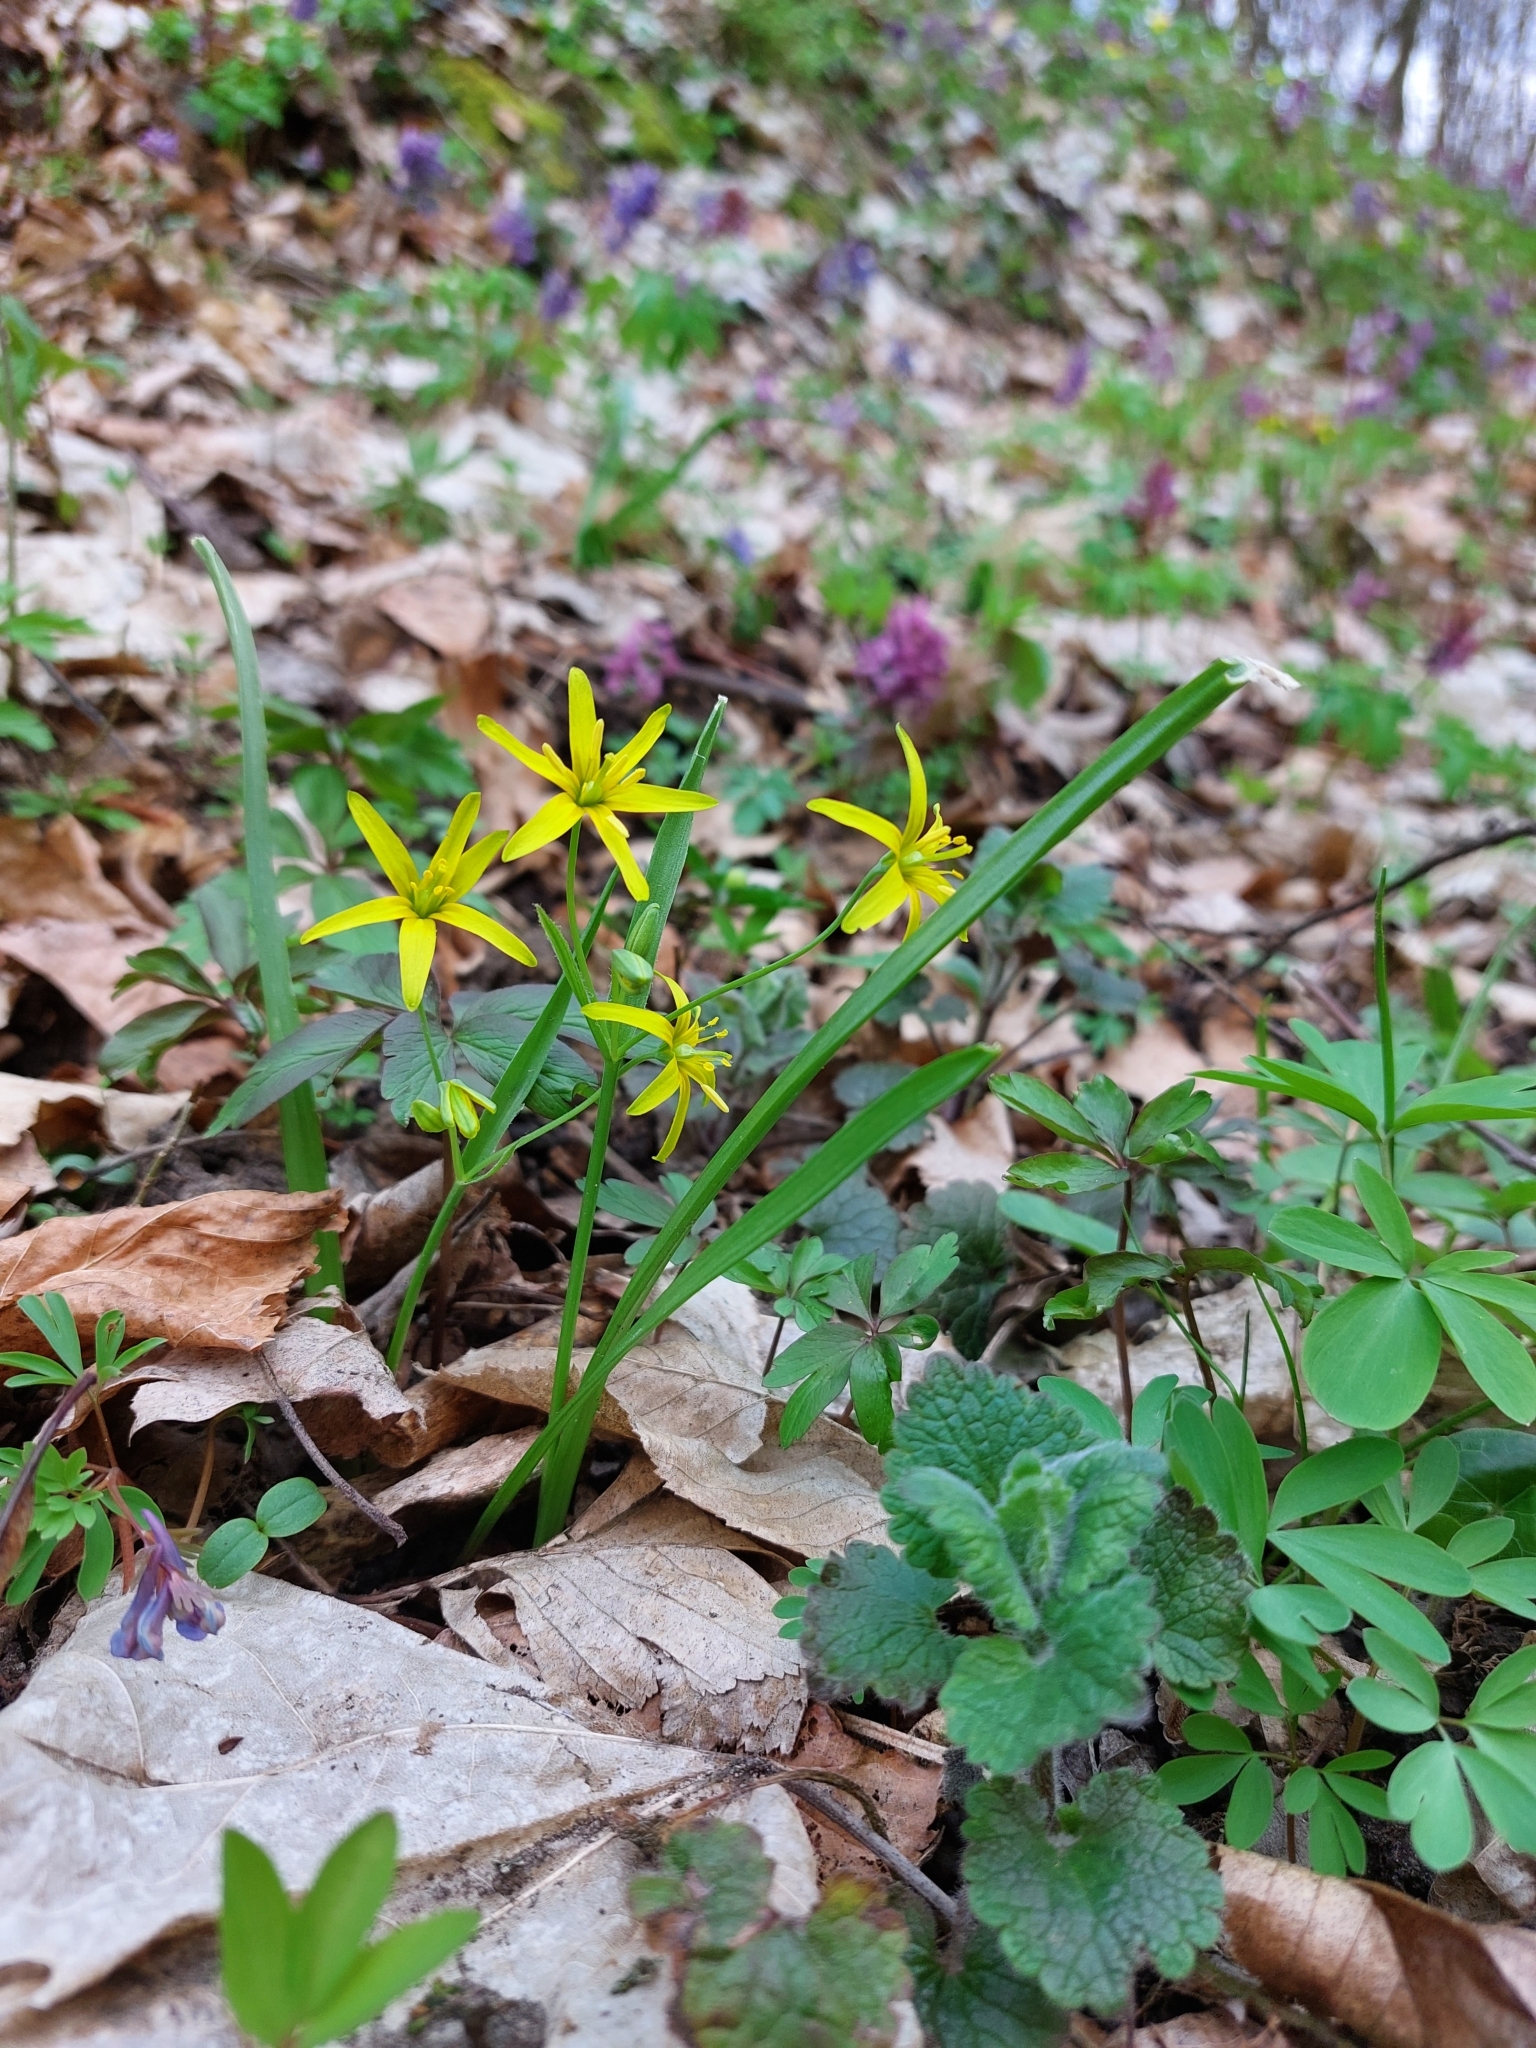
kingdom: Plantae
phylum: Tracheophyta
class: Liliopsida
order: Liliales
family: Liliaceae
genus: Gagea
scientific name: Gagea lutea
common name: Yellow star-of-bethlehem
